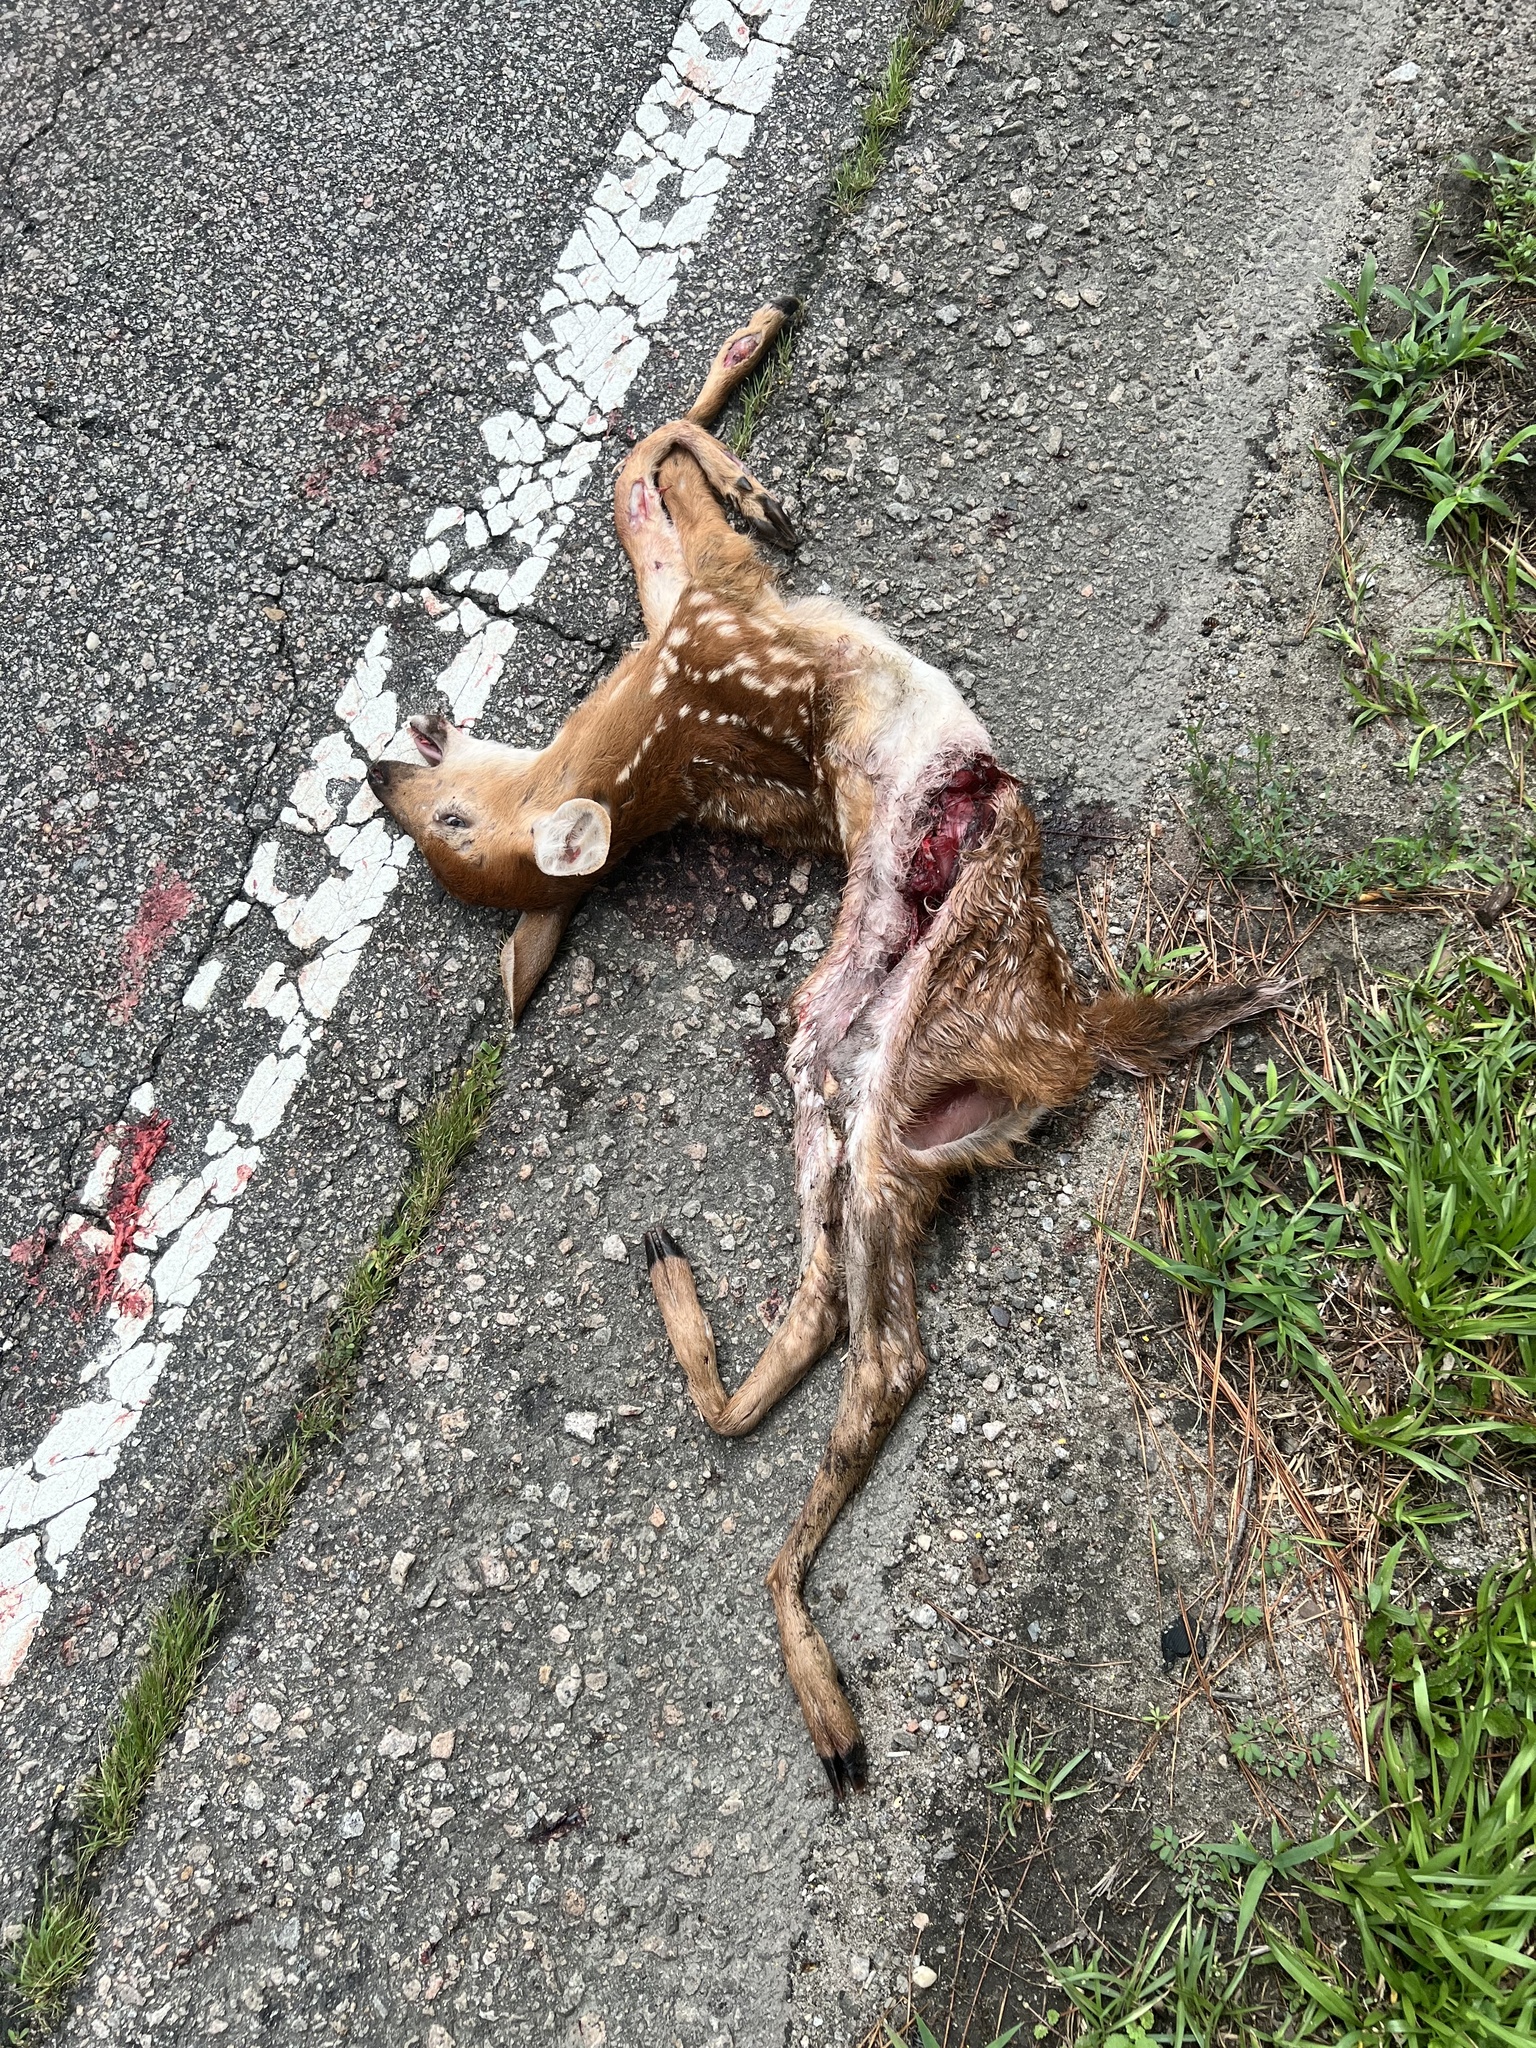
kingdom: Animalia
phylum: Chordata
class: Mammalia
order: Artiodactyla
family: Cervidae
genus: Odocoileus
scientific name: Odocoileus virginianus
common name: White-tailed deer
